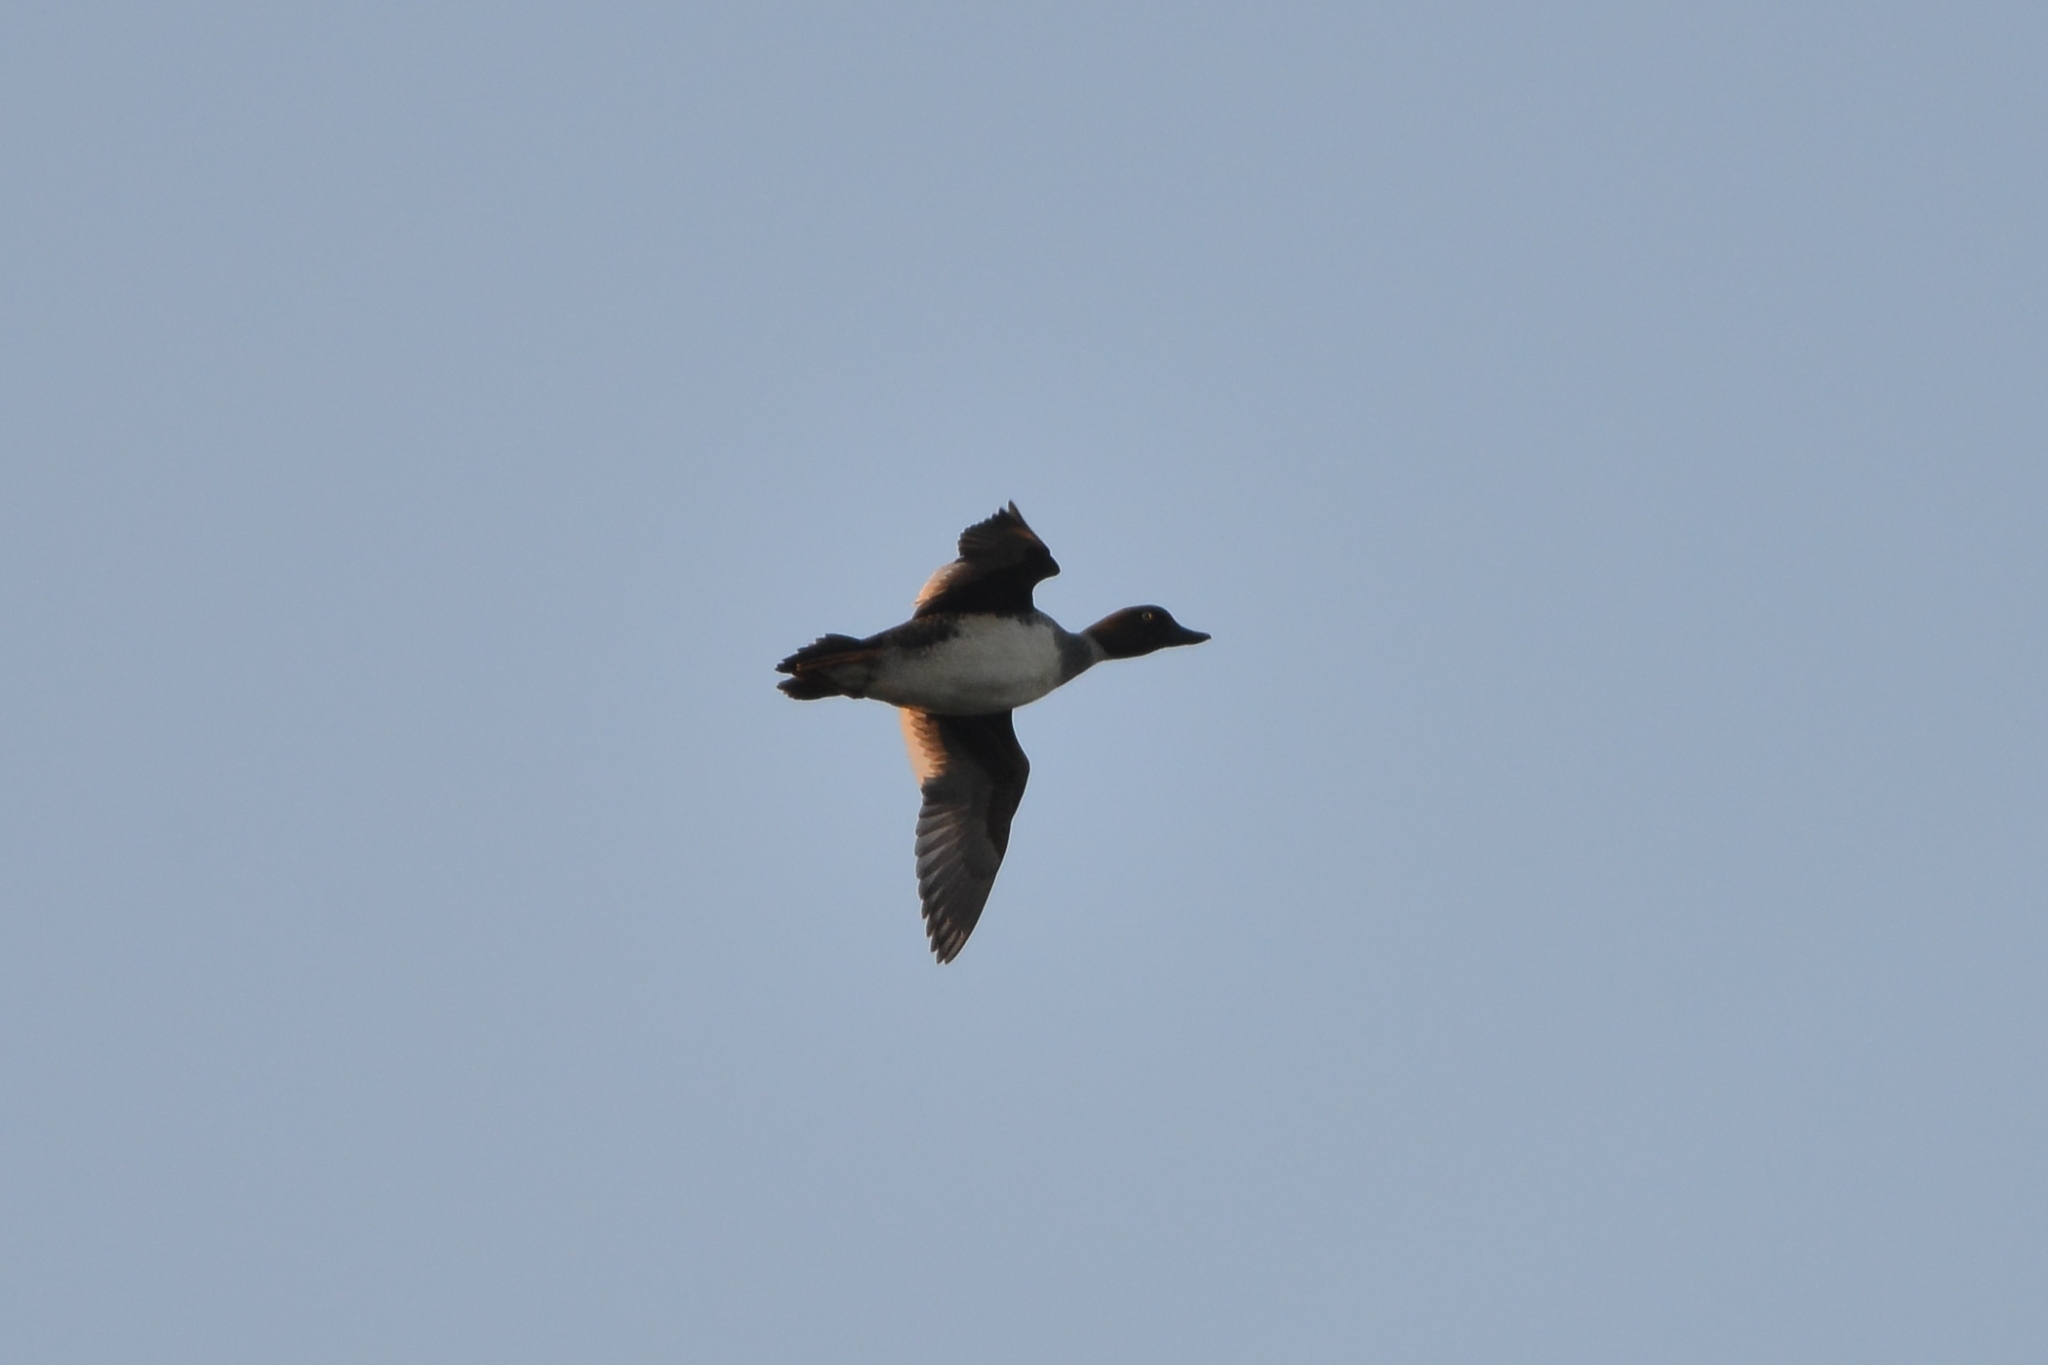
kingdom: Animalia
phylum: Chordata
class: Aves
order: Anseriformes
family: Anatidae
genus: Bucephala
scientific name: Bucephala clangula
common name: Common goldeneye
